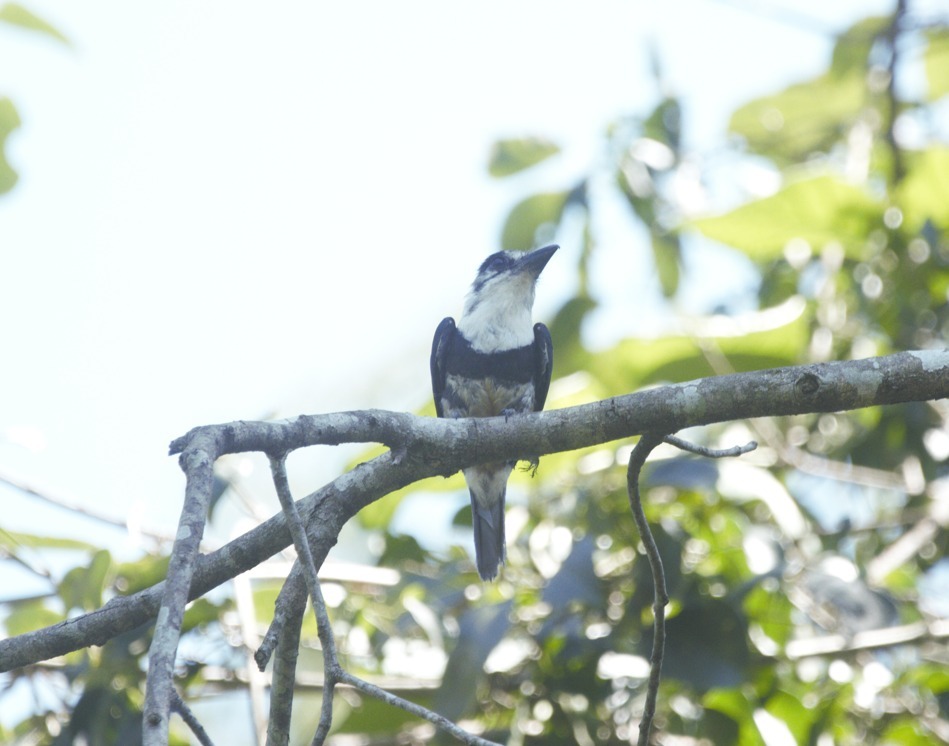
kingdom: Animalia
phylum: Chordata
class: Aves
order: Piciformes
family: Bucconidae
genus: Notharchus
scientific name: Notharchus swainsoni
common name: Buff-bellied puffbird
